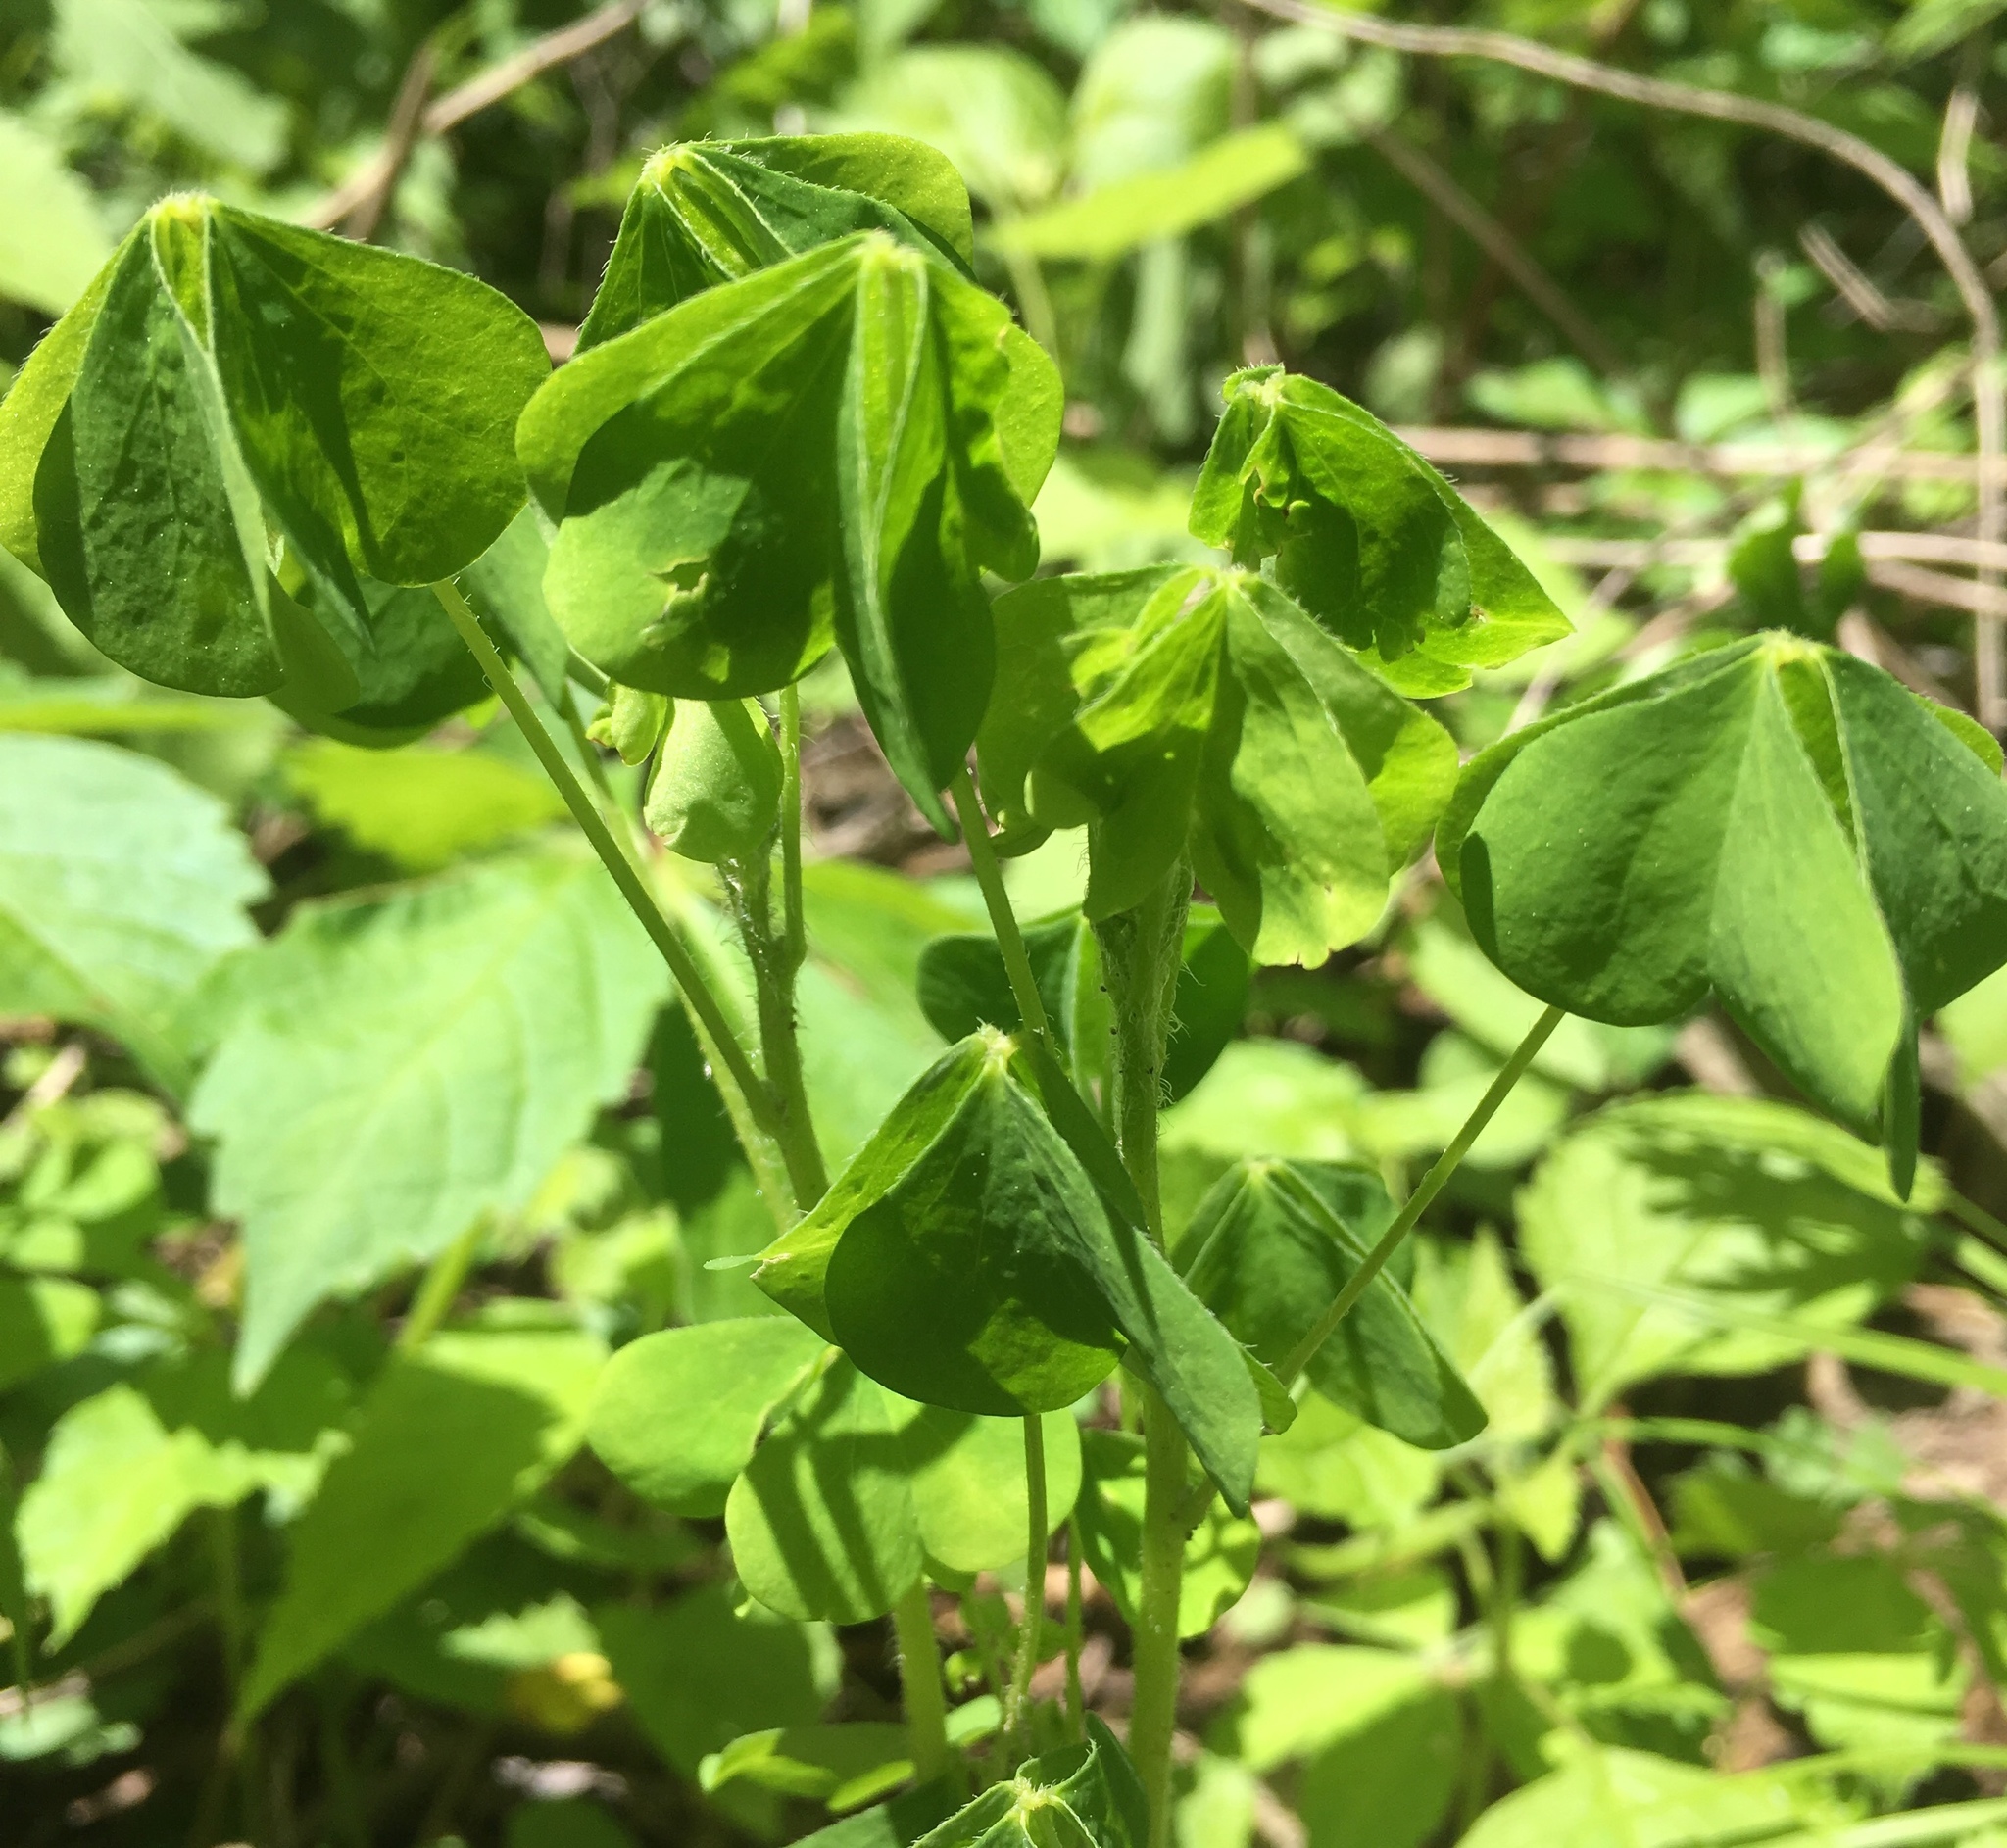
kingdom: Plantae
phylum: Tracheophyta
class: Magnoliopsida
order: Oxalidales
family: Oxalidaceae
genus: Oxalis
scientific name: Oxalis stricta
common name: Upright yellow-sorrel
